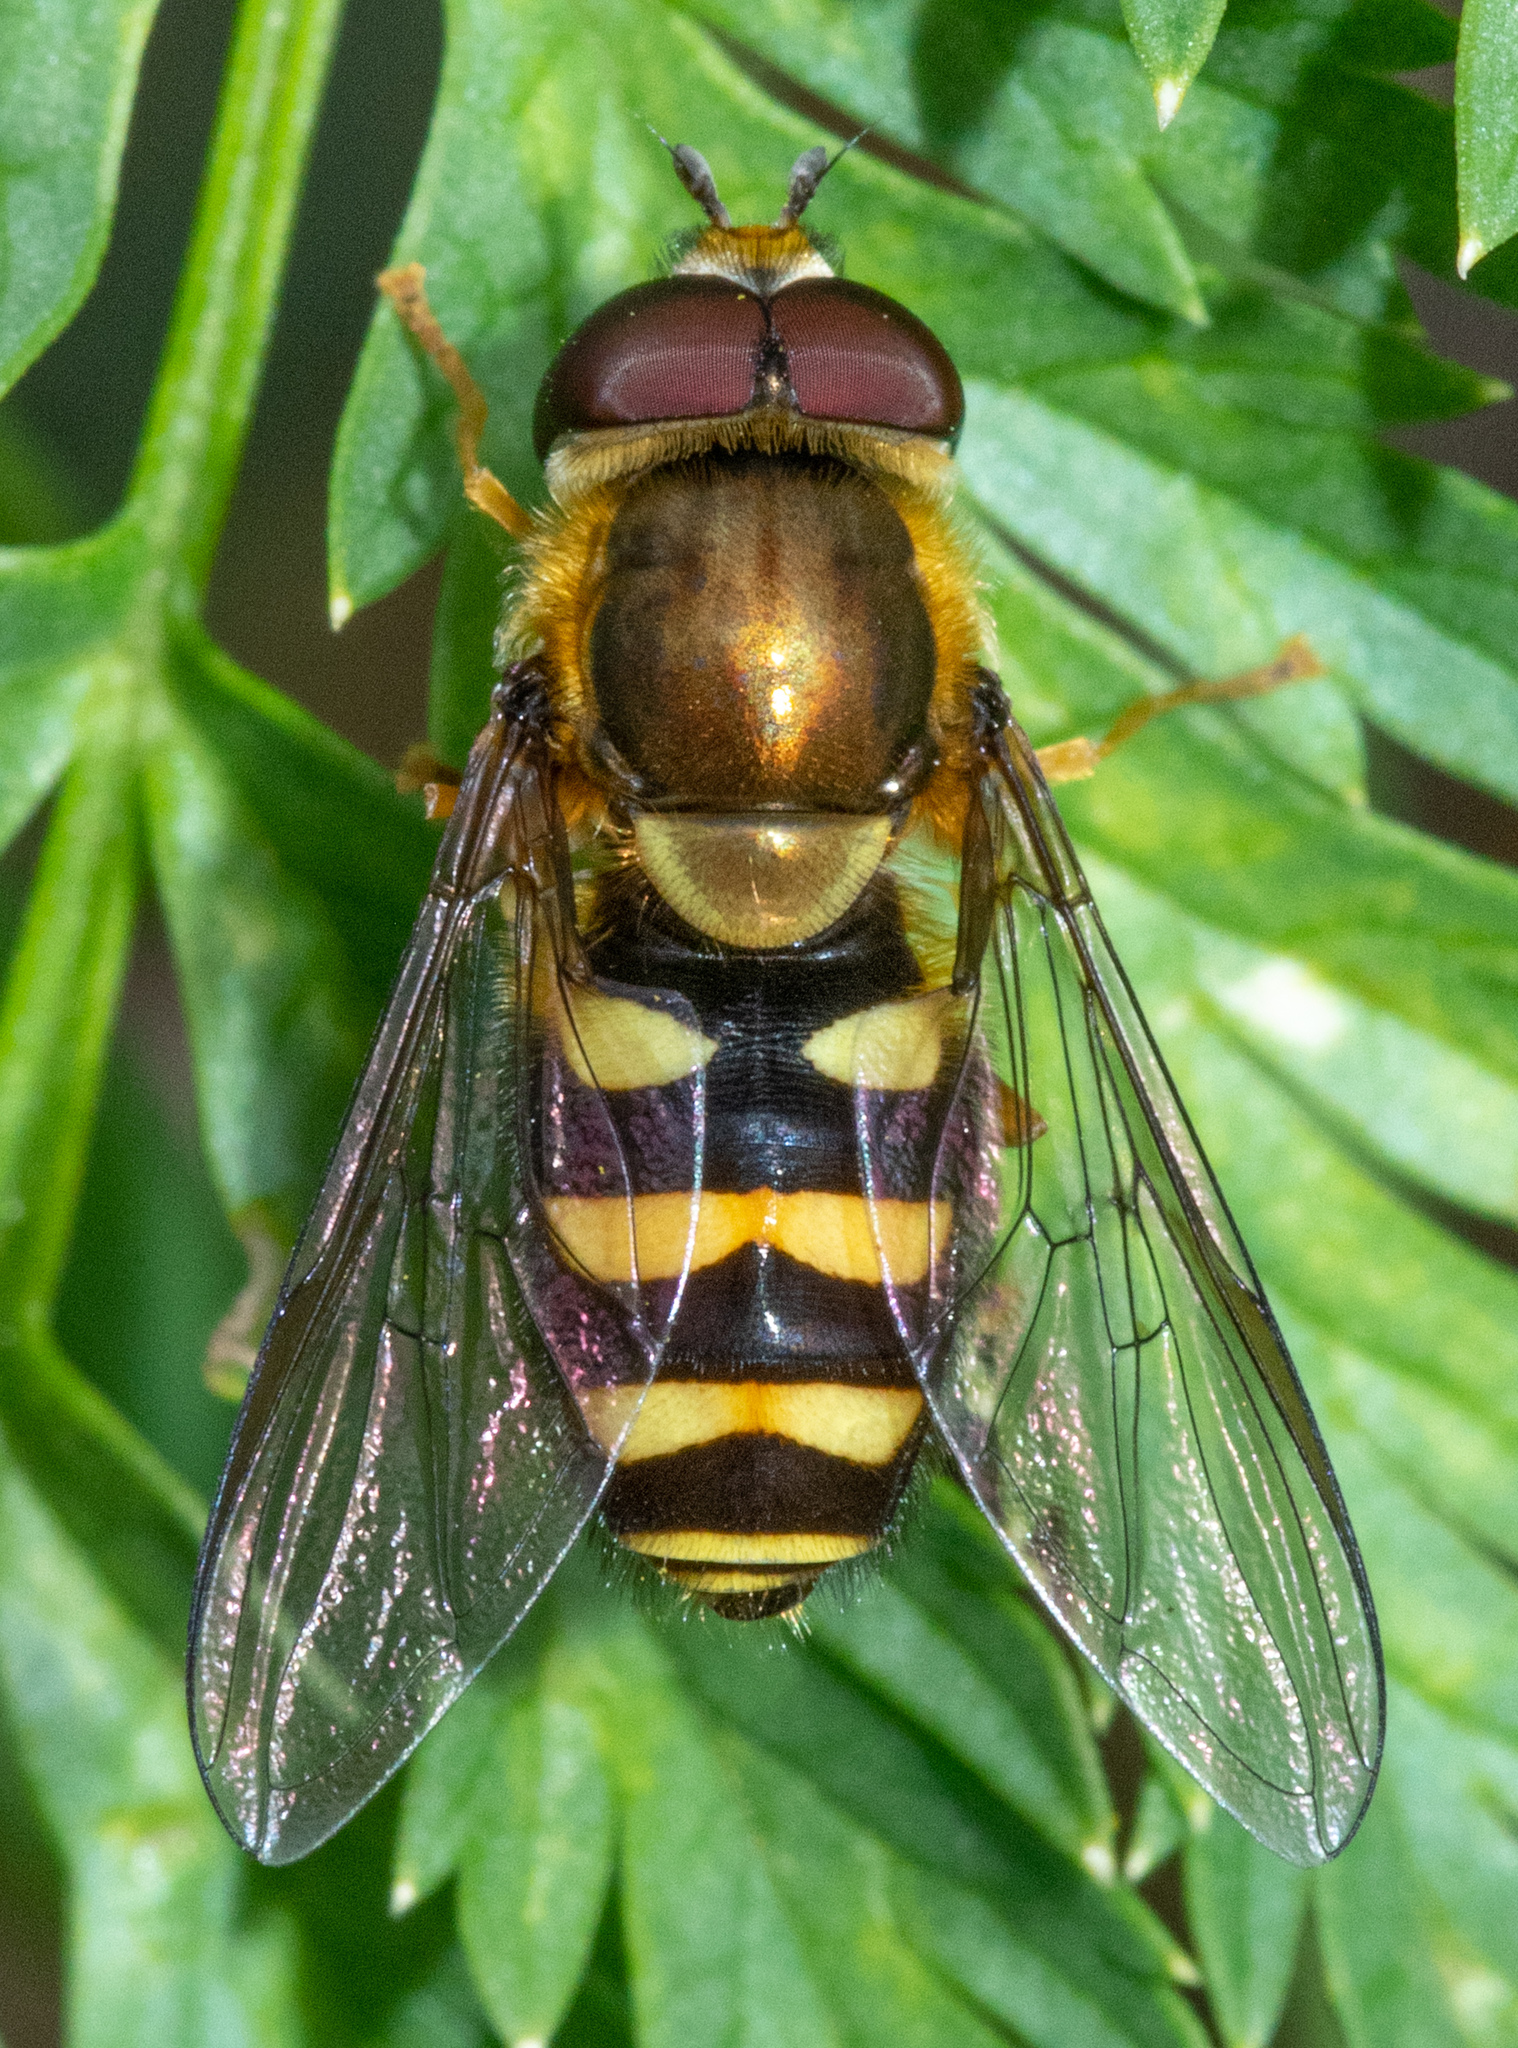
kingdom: Animalia
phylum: Arthropoda
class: Insecta
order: Diptera
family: Syrphidae
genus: Syrphus
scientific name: Syrphus opinator
